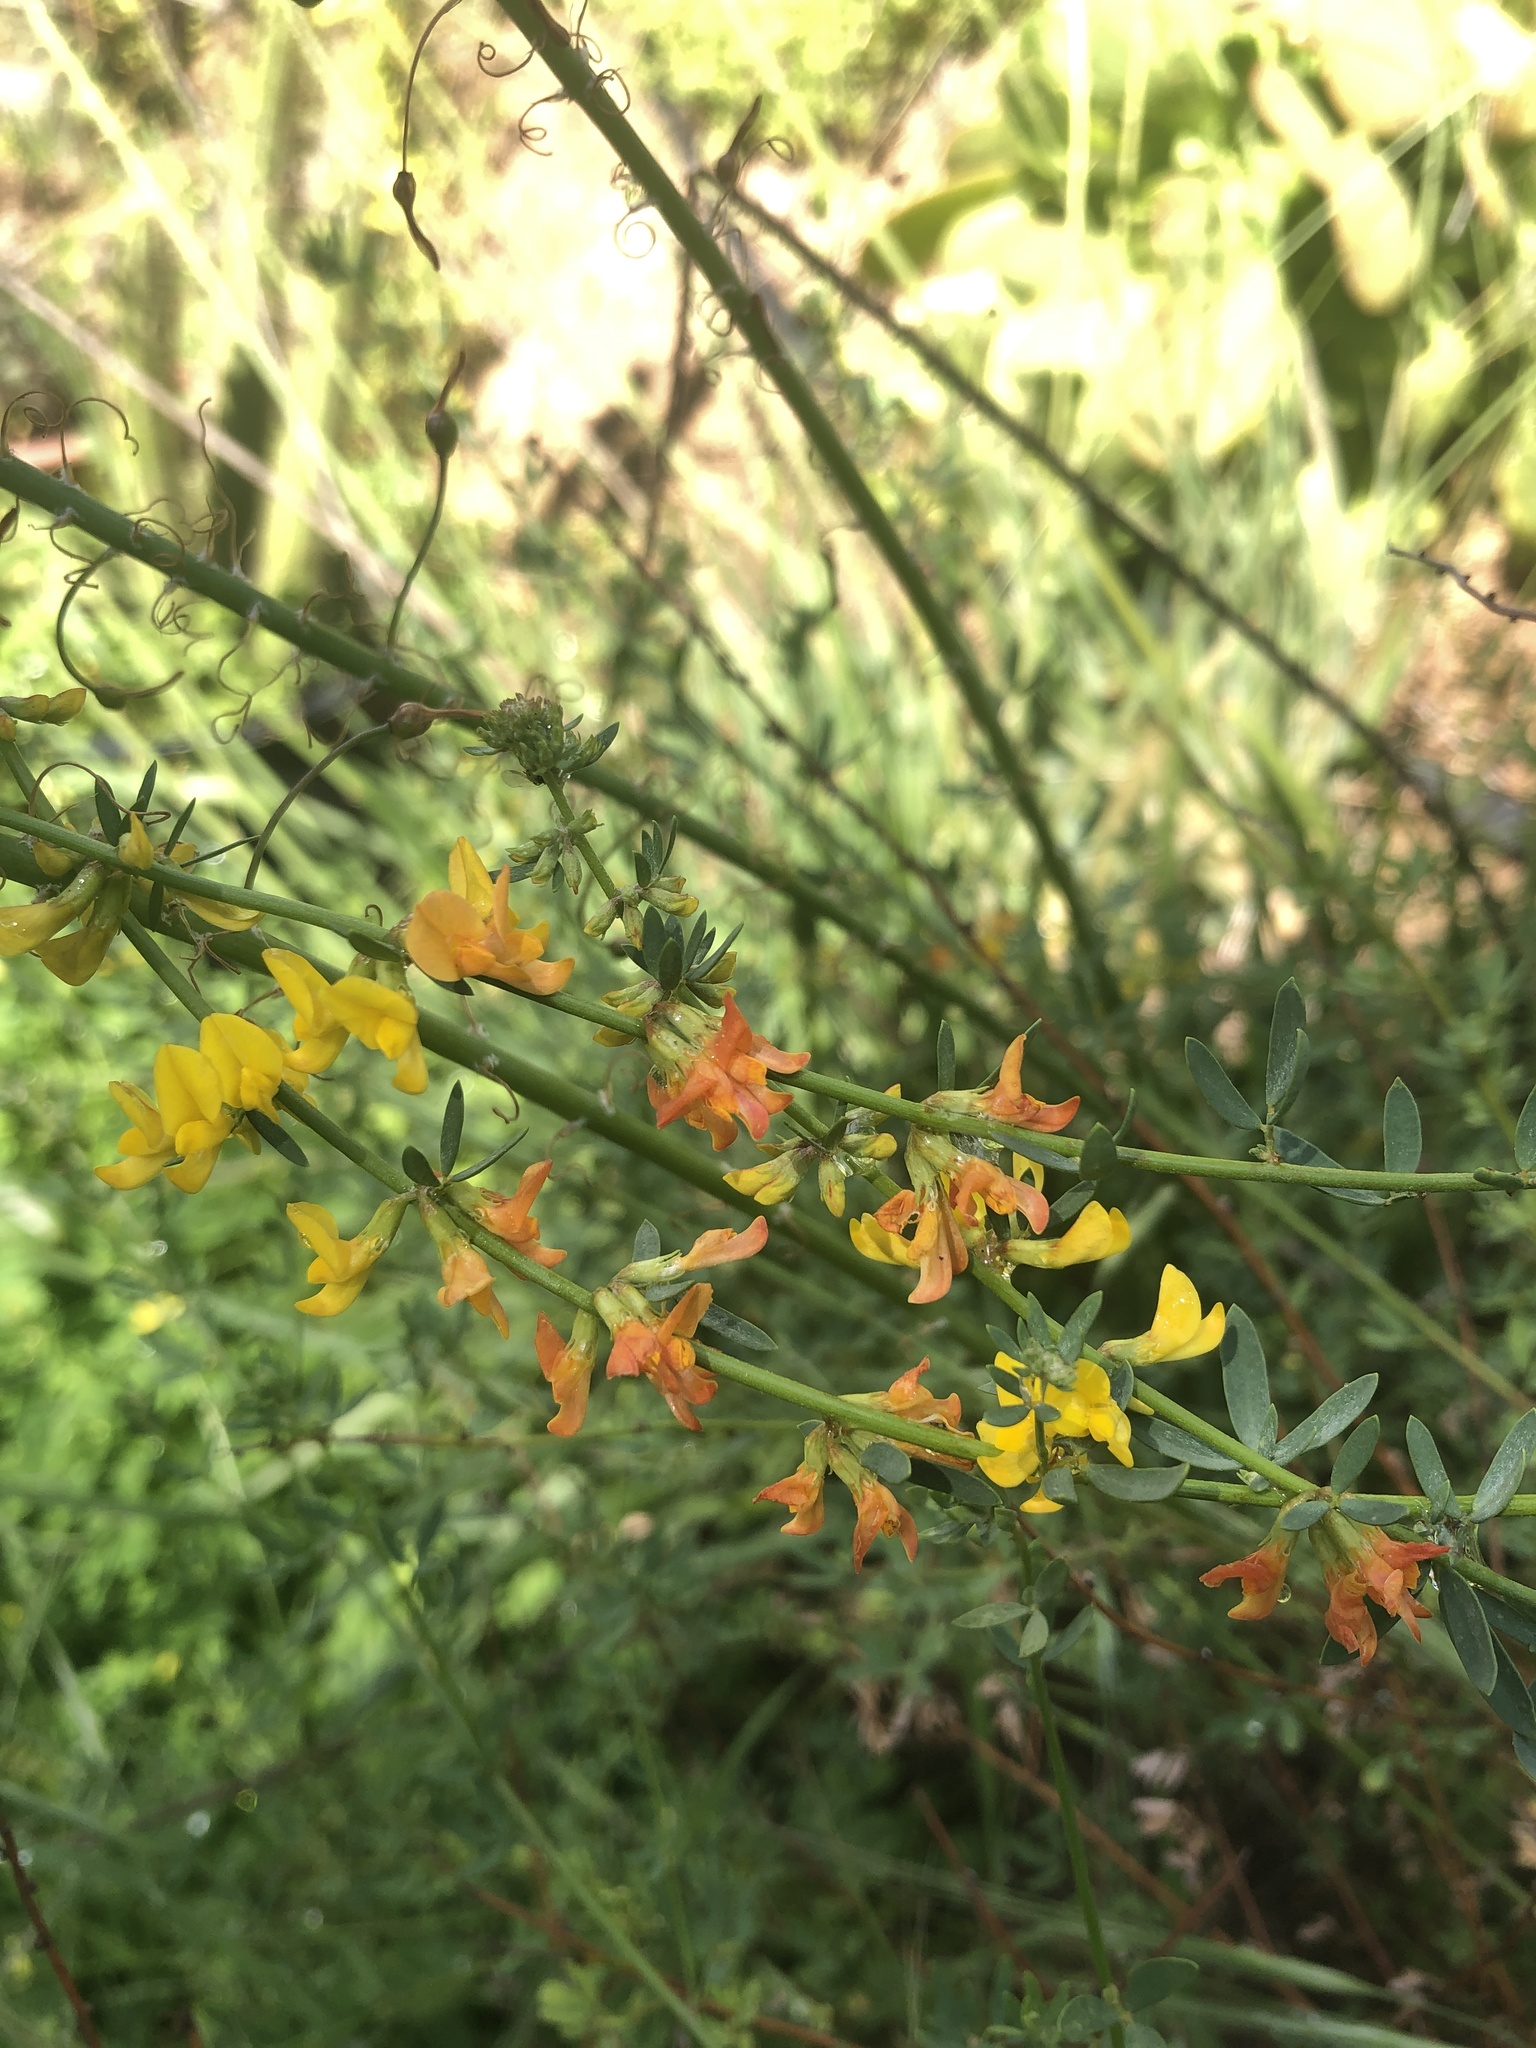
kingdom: Plantae
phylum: Tracheophyta
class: Magnoliopsida
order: Fabales
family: Fabaceae
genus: Acmispon
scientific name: Acmispon glaber
